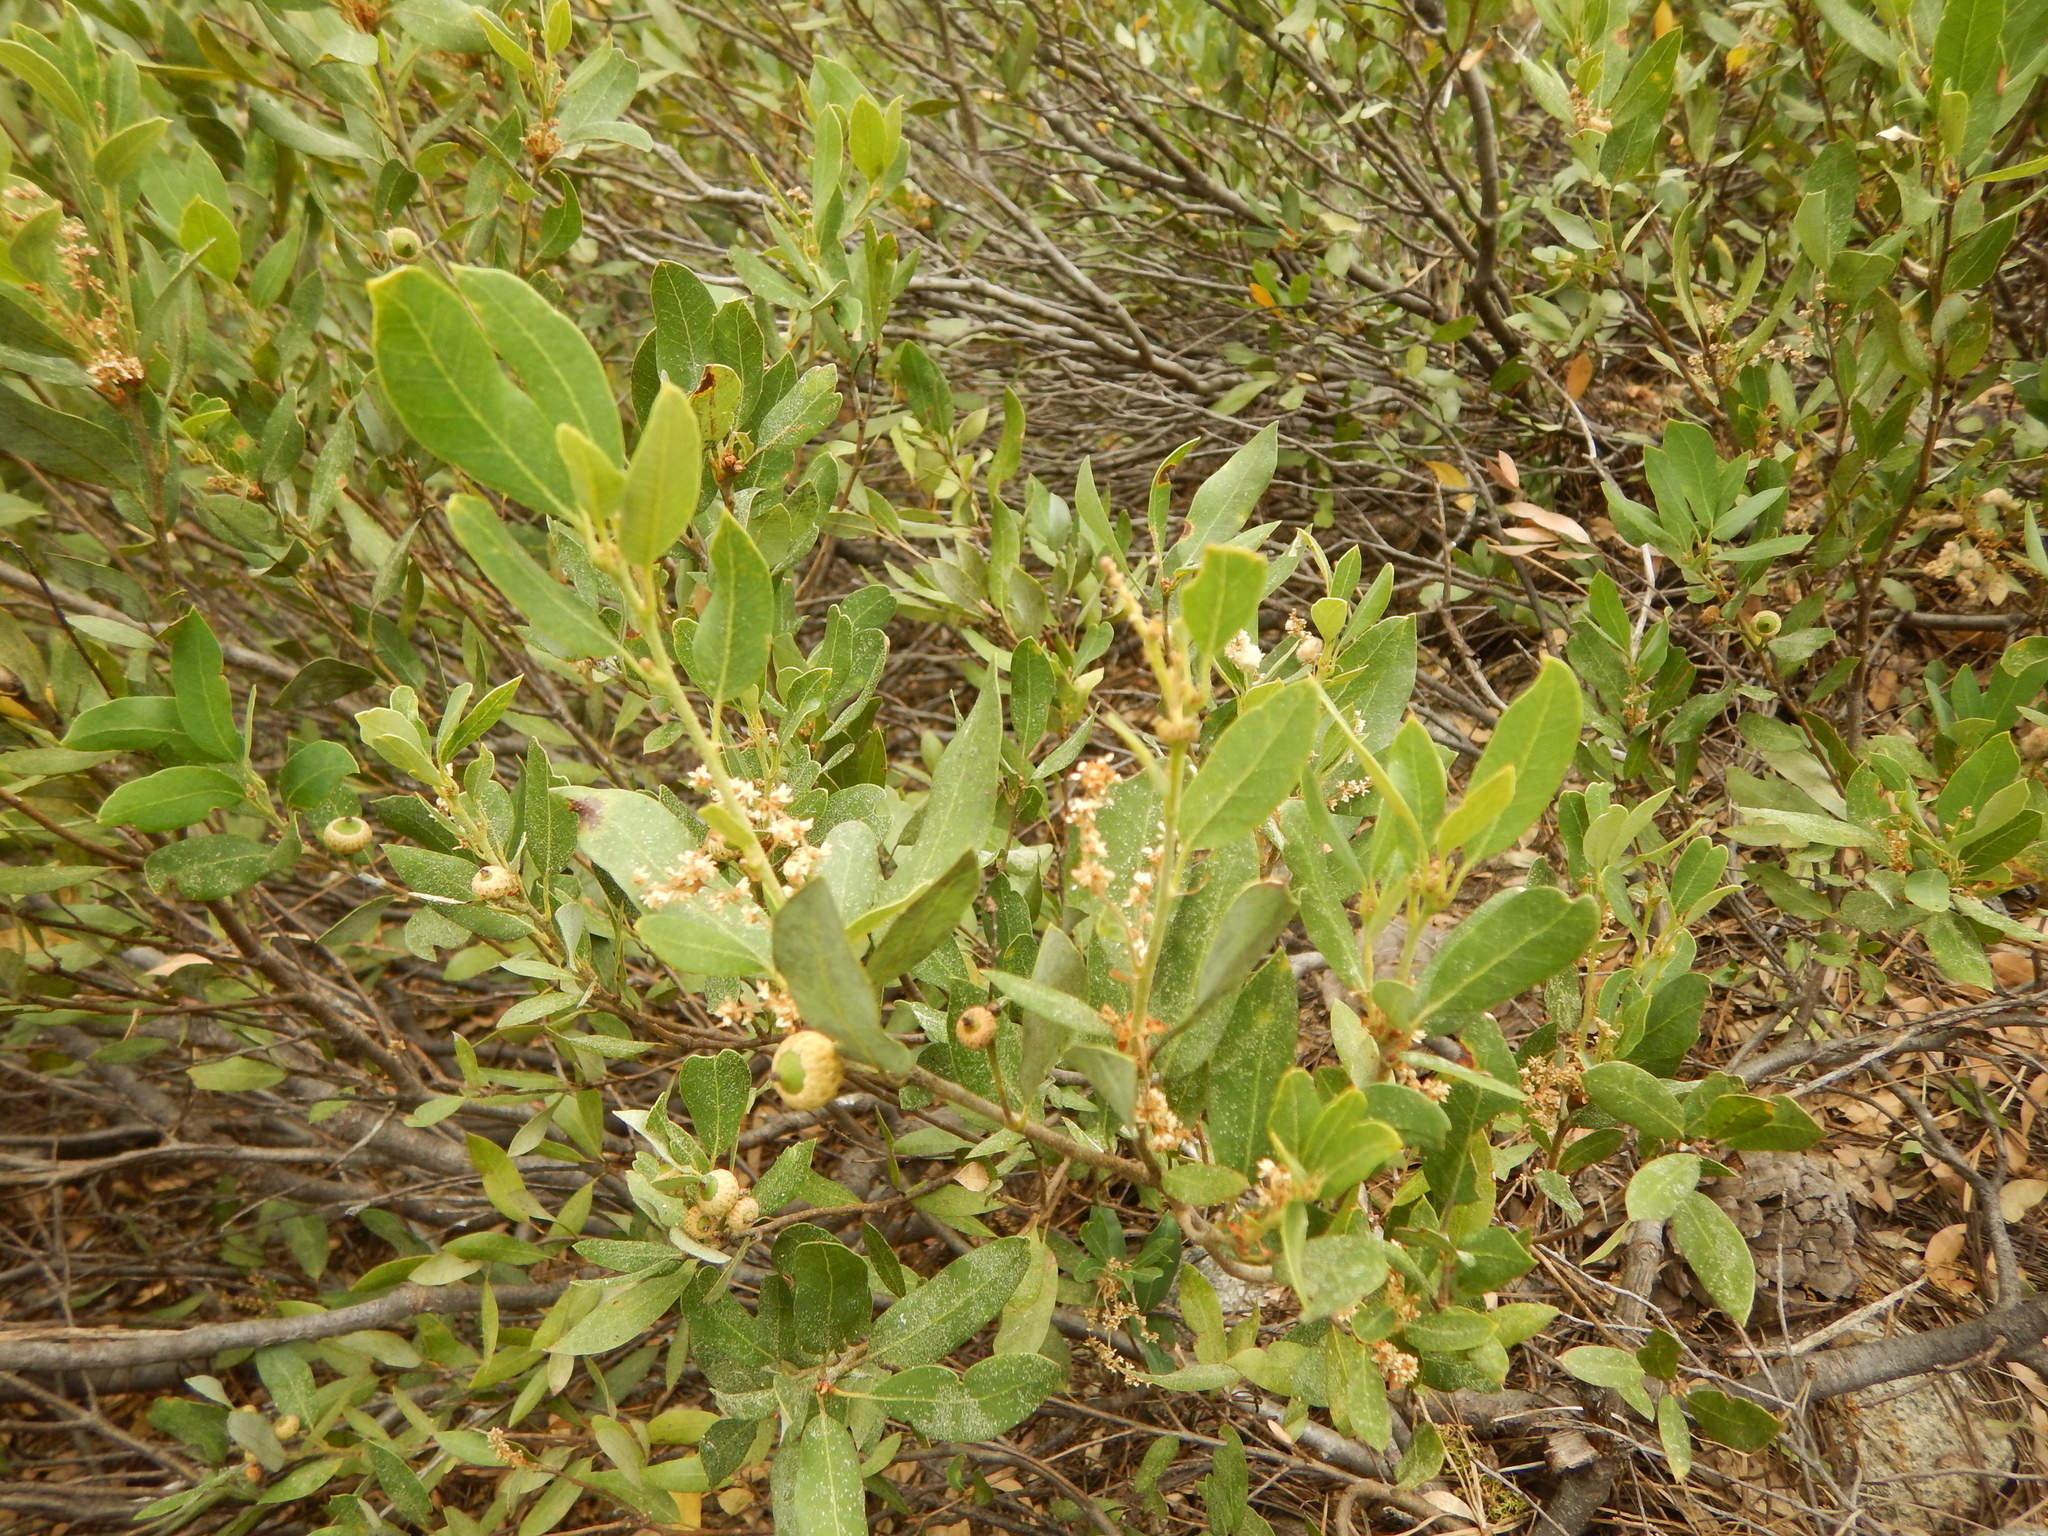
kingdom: Plantae
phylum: Tracheophyta
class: Magnoliopsida
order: Fagales
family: Fagaceae
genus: Quercus
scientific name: Quercus vacciniifolia
